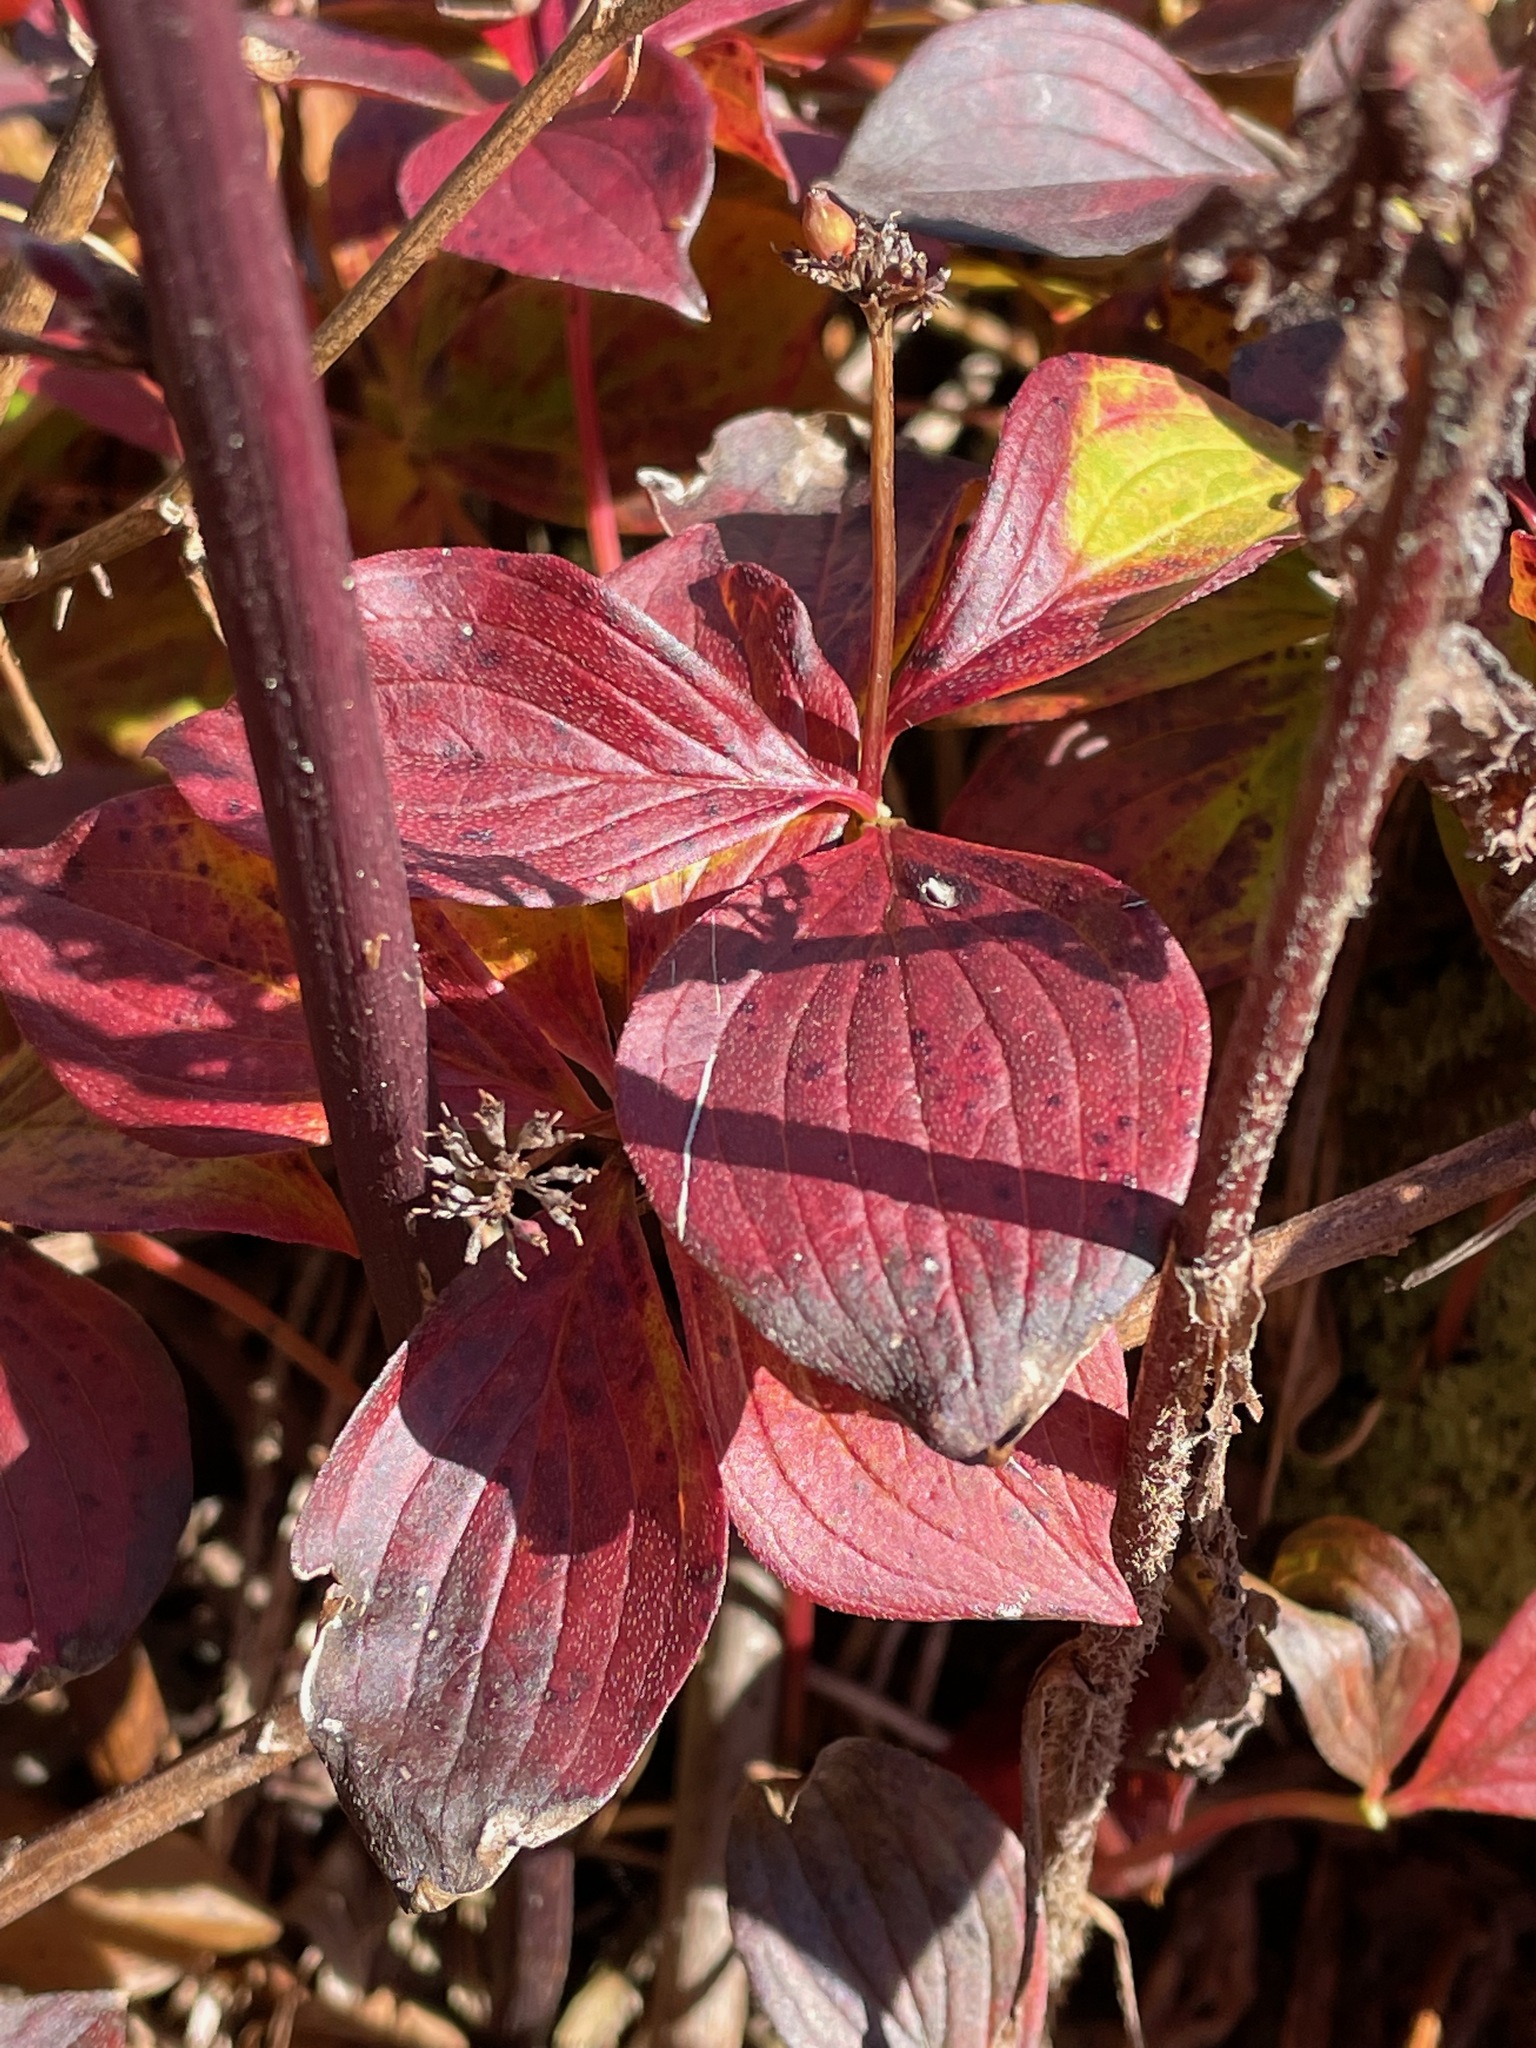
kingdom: Plantae
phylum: Tracheophyta
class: Magnoliopsida
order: Cornales
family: Cornaceae
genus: Cornus
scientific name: Cornus canadensis
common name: Creeping dogwood
